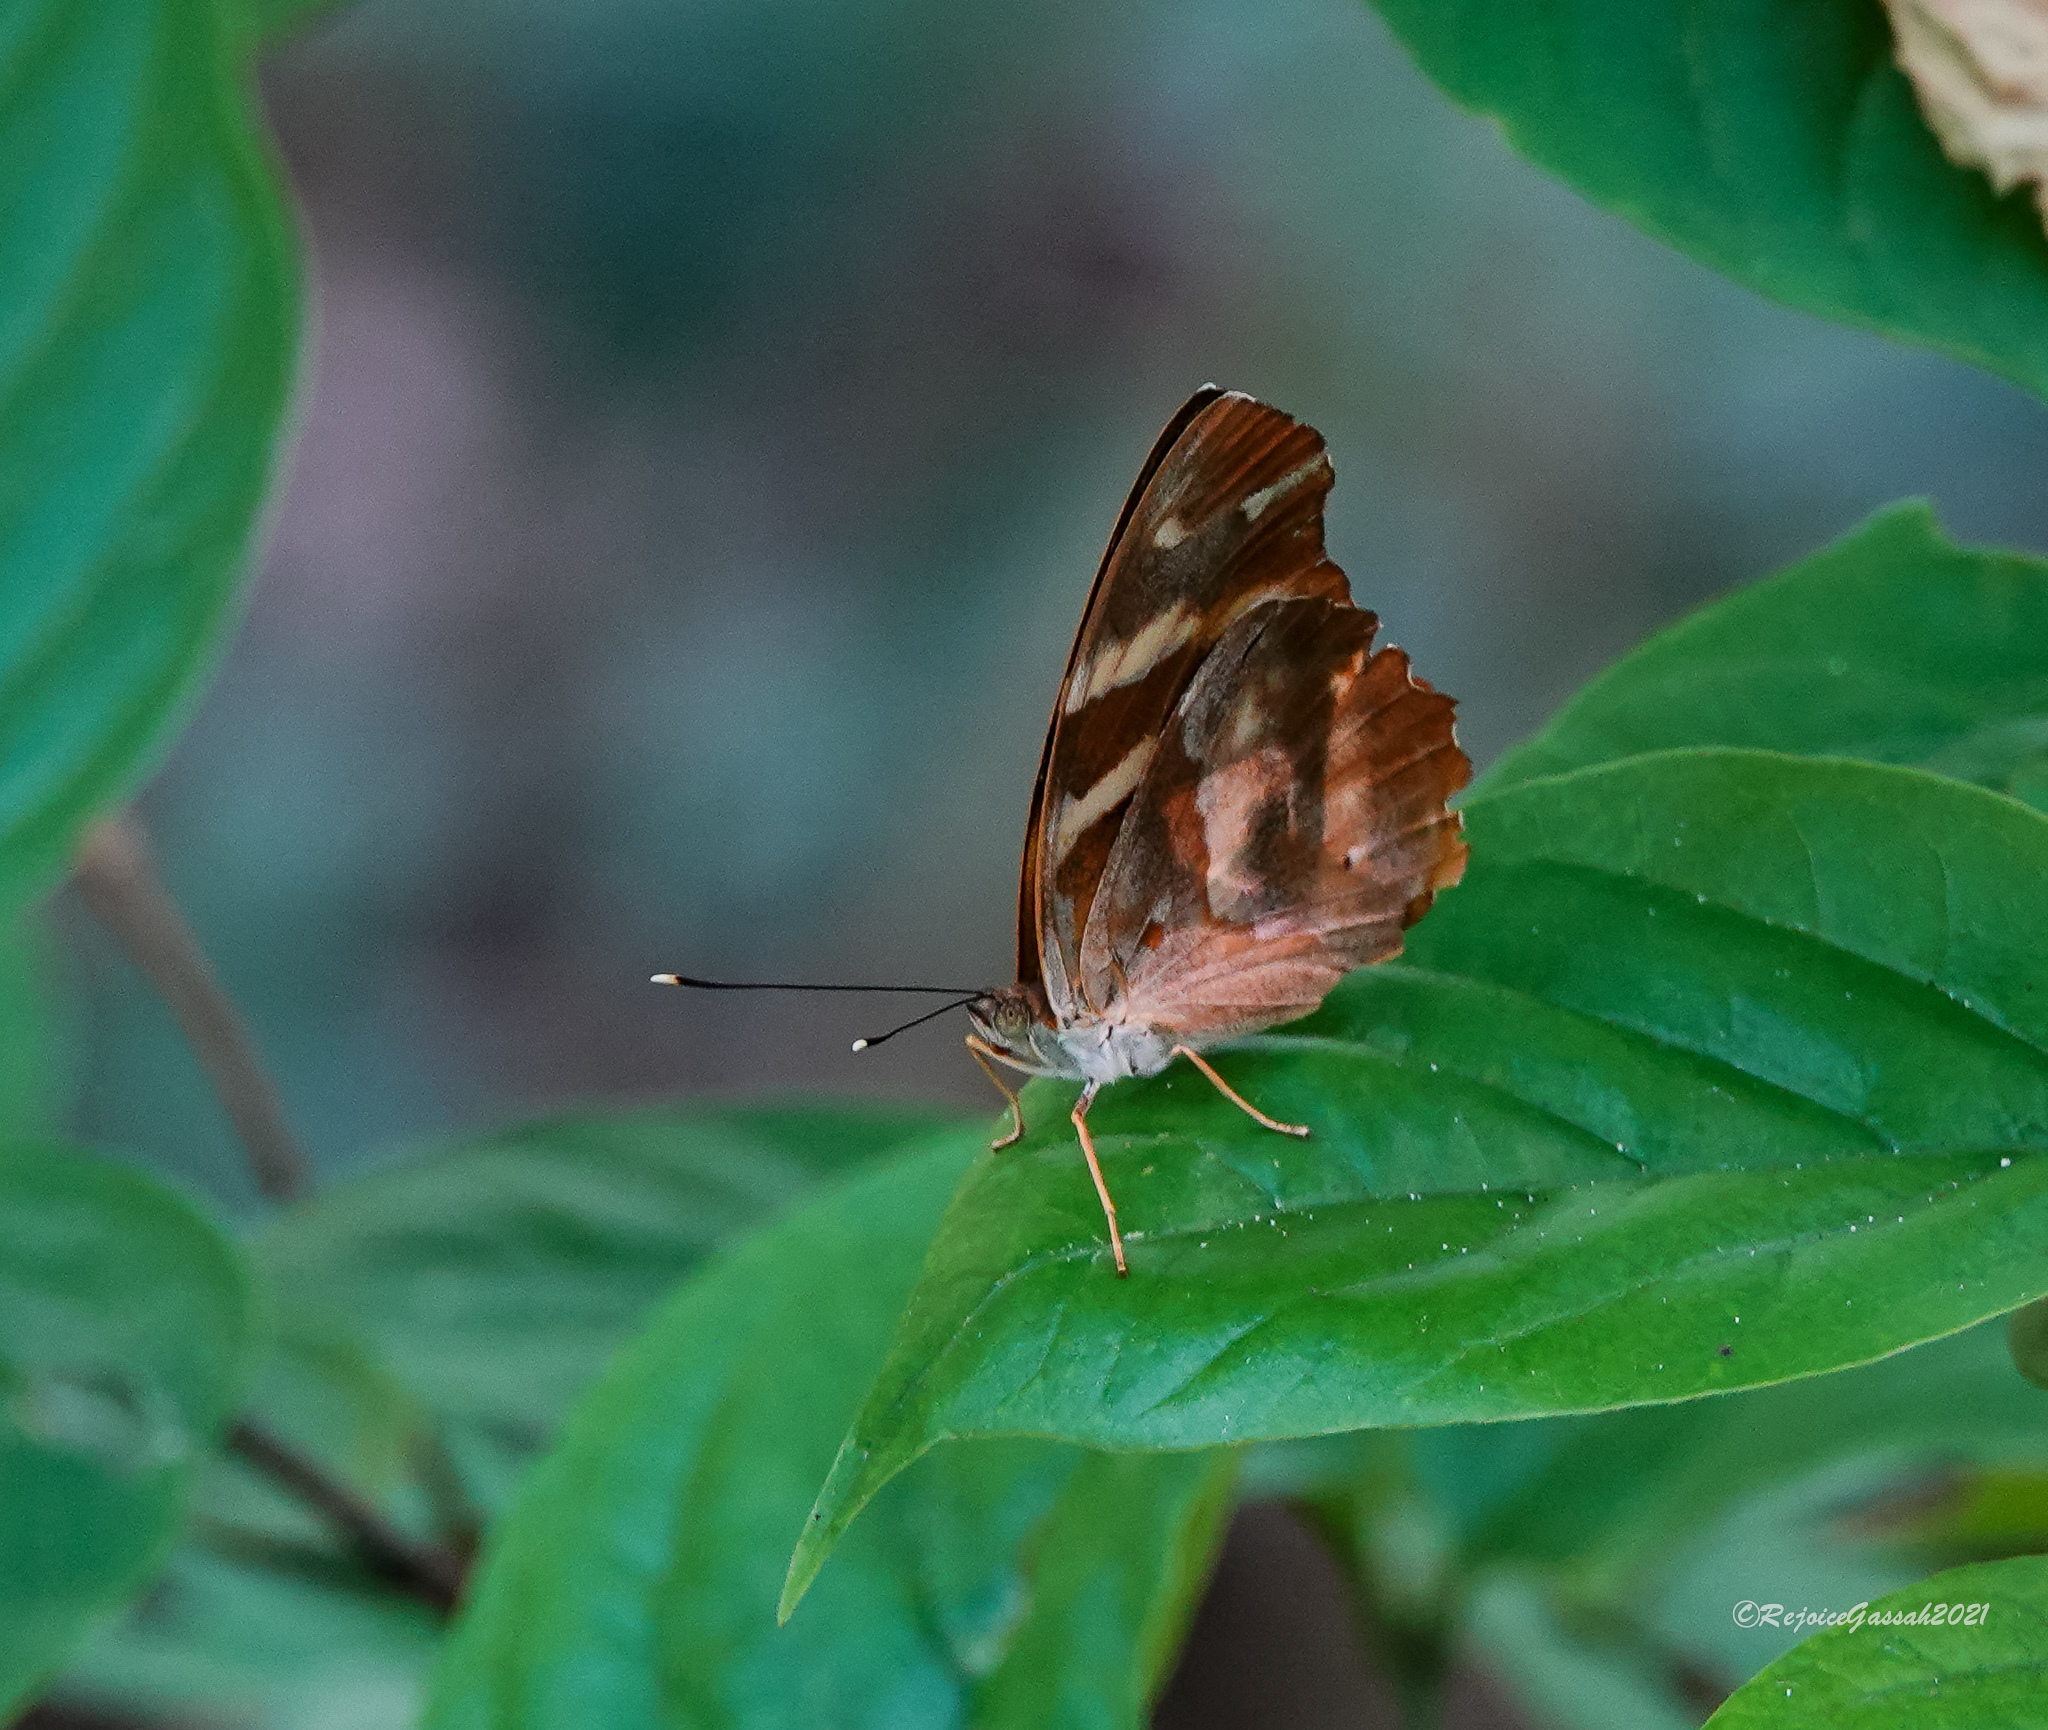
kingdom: Animalia
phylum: Arthropoda
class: Insecta
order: Lepidoptera
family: Nymphalidae
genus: Herona
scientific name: Herona marathus
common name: Yellow pasha
